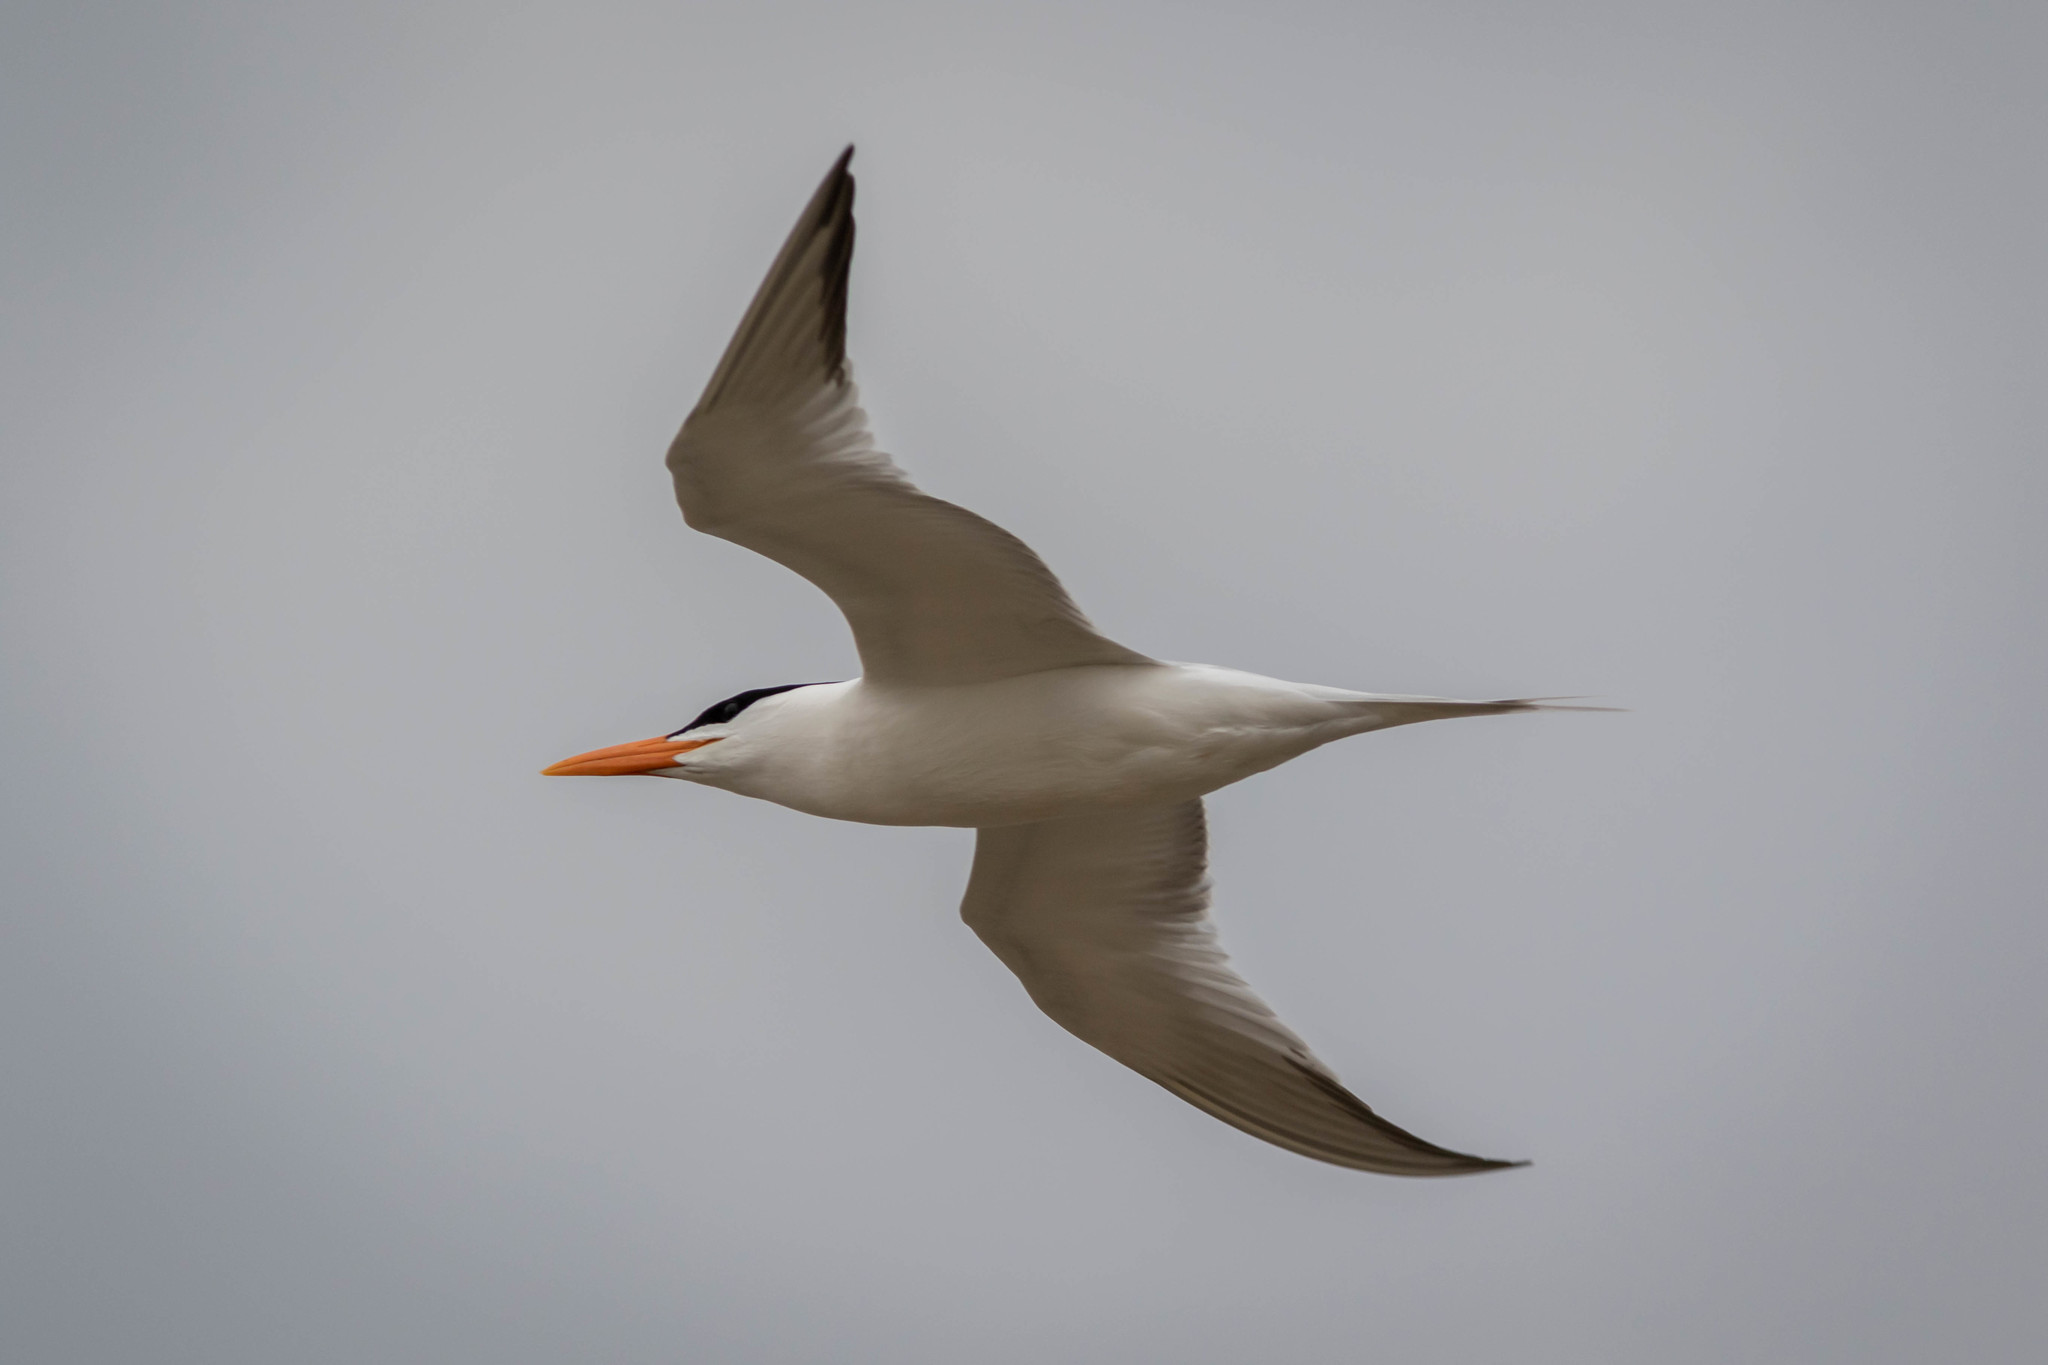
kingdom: Animalia
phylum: Chordata
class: Aves
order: Charadriiformes
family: Laridae
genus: Thalasseus
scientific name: Thalasseus maximus
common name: Royal tern
